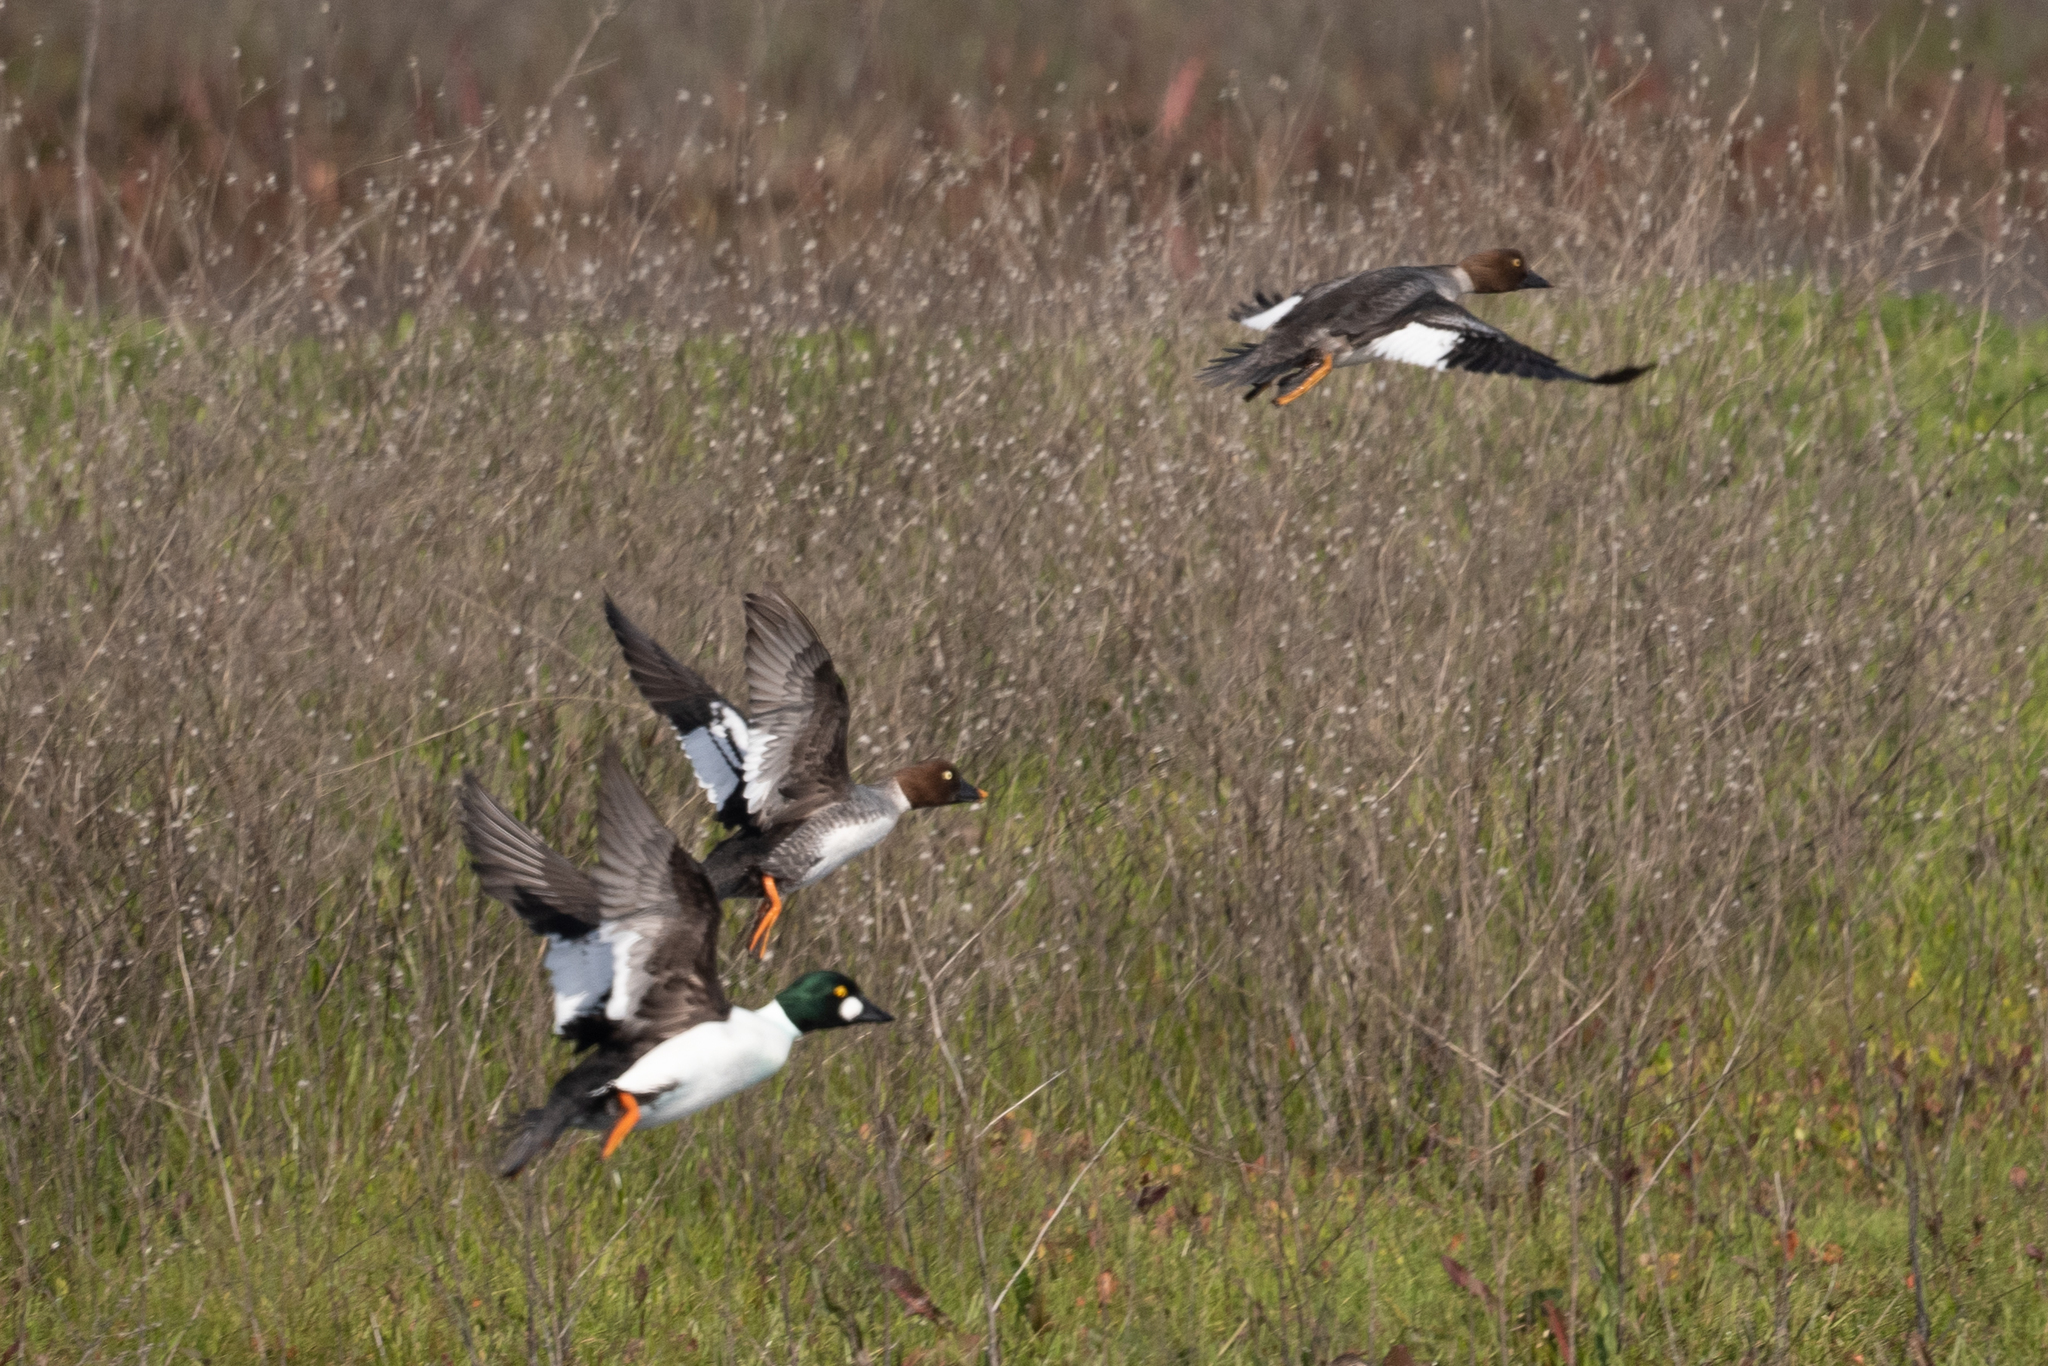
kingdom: Animalia
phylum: Chordata
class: Aves
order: Anseriformes
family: Anatidae
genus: Bucephala
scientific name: Bucephala clangula
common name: Common goldeneye
